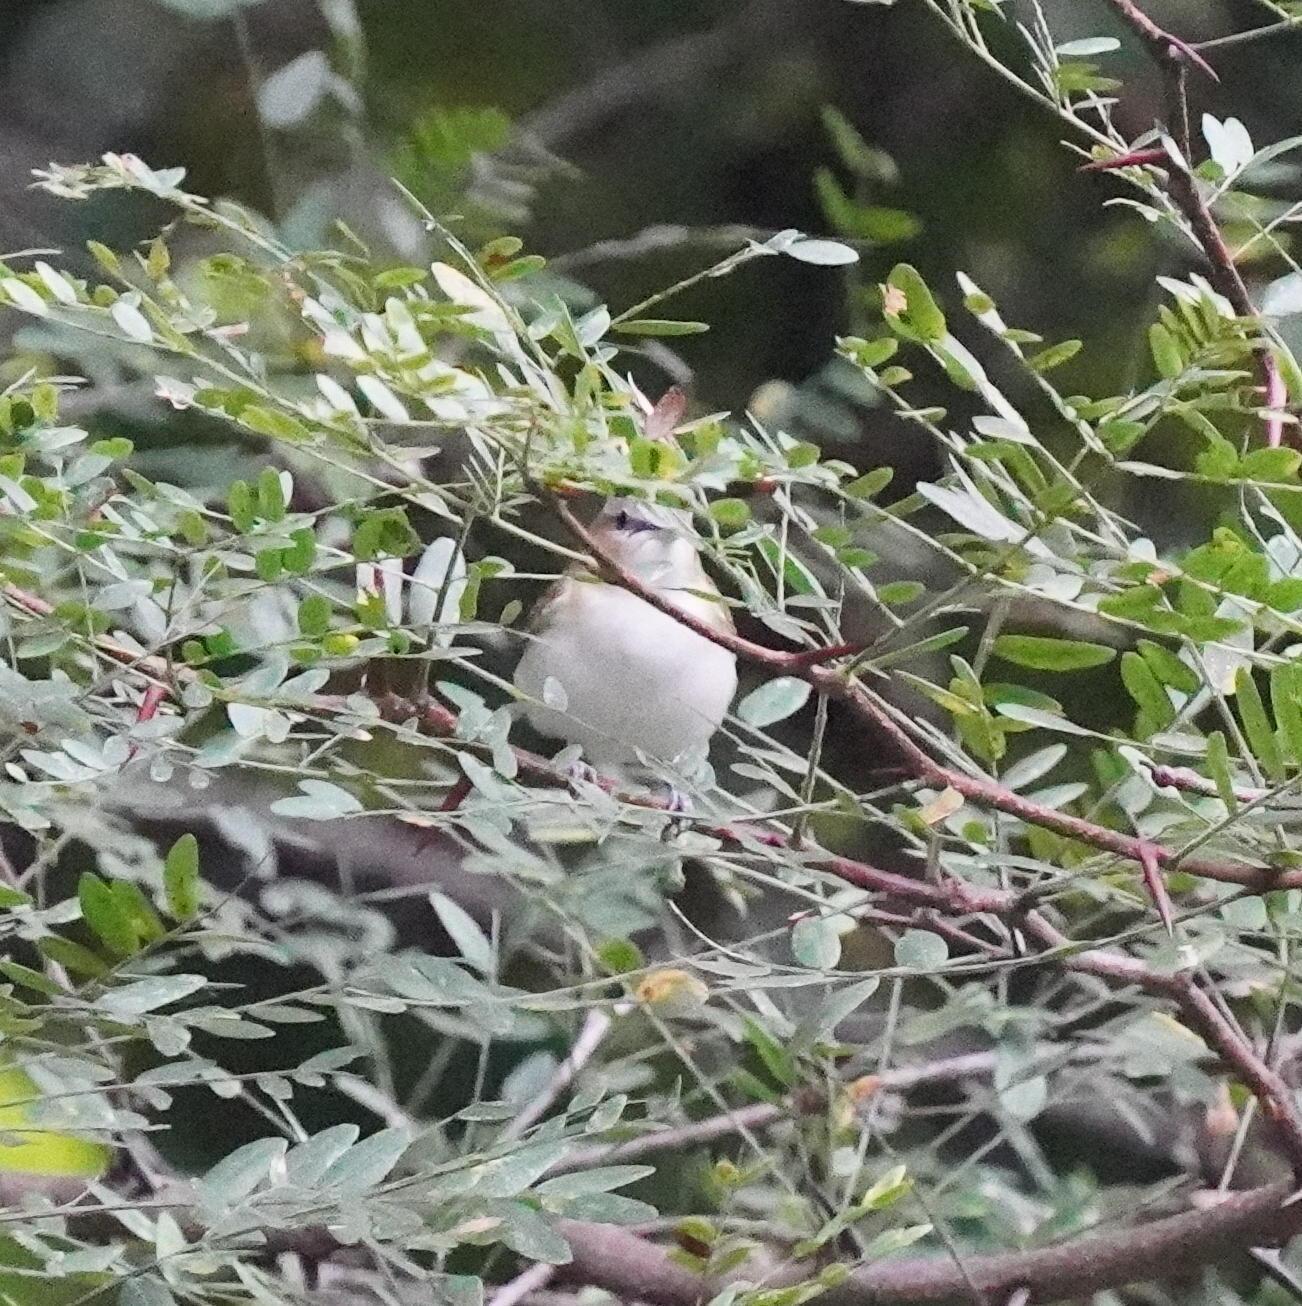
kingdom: Animalia
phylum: Chordata
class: Aves
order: Passeriformes
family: Vireonidae
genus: Vireo
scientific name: Vireo olivaceus
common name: Red-eyed vireo
